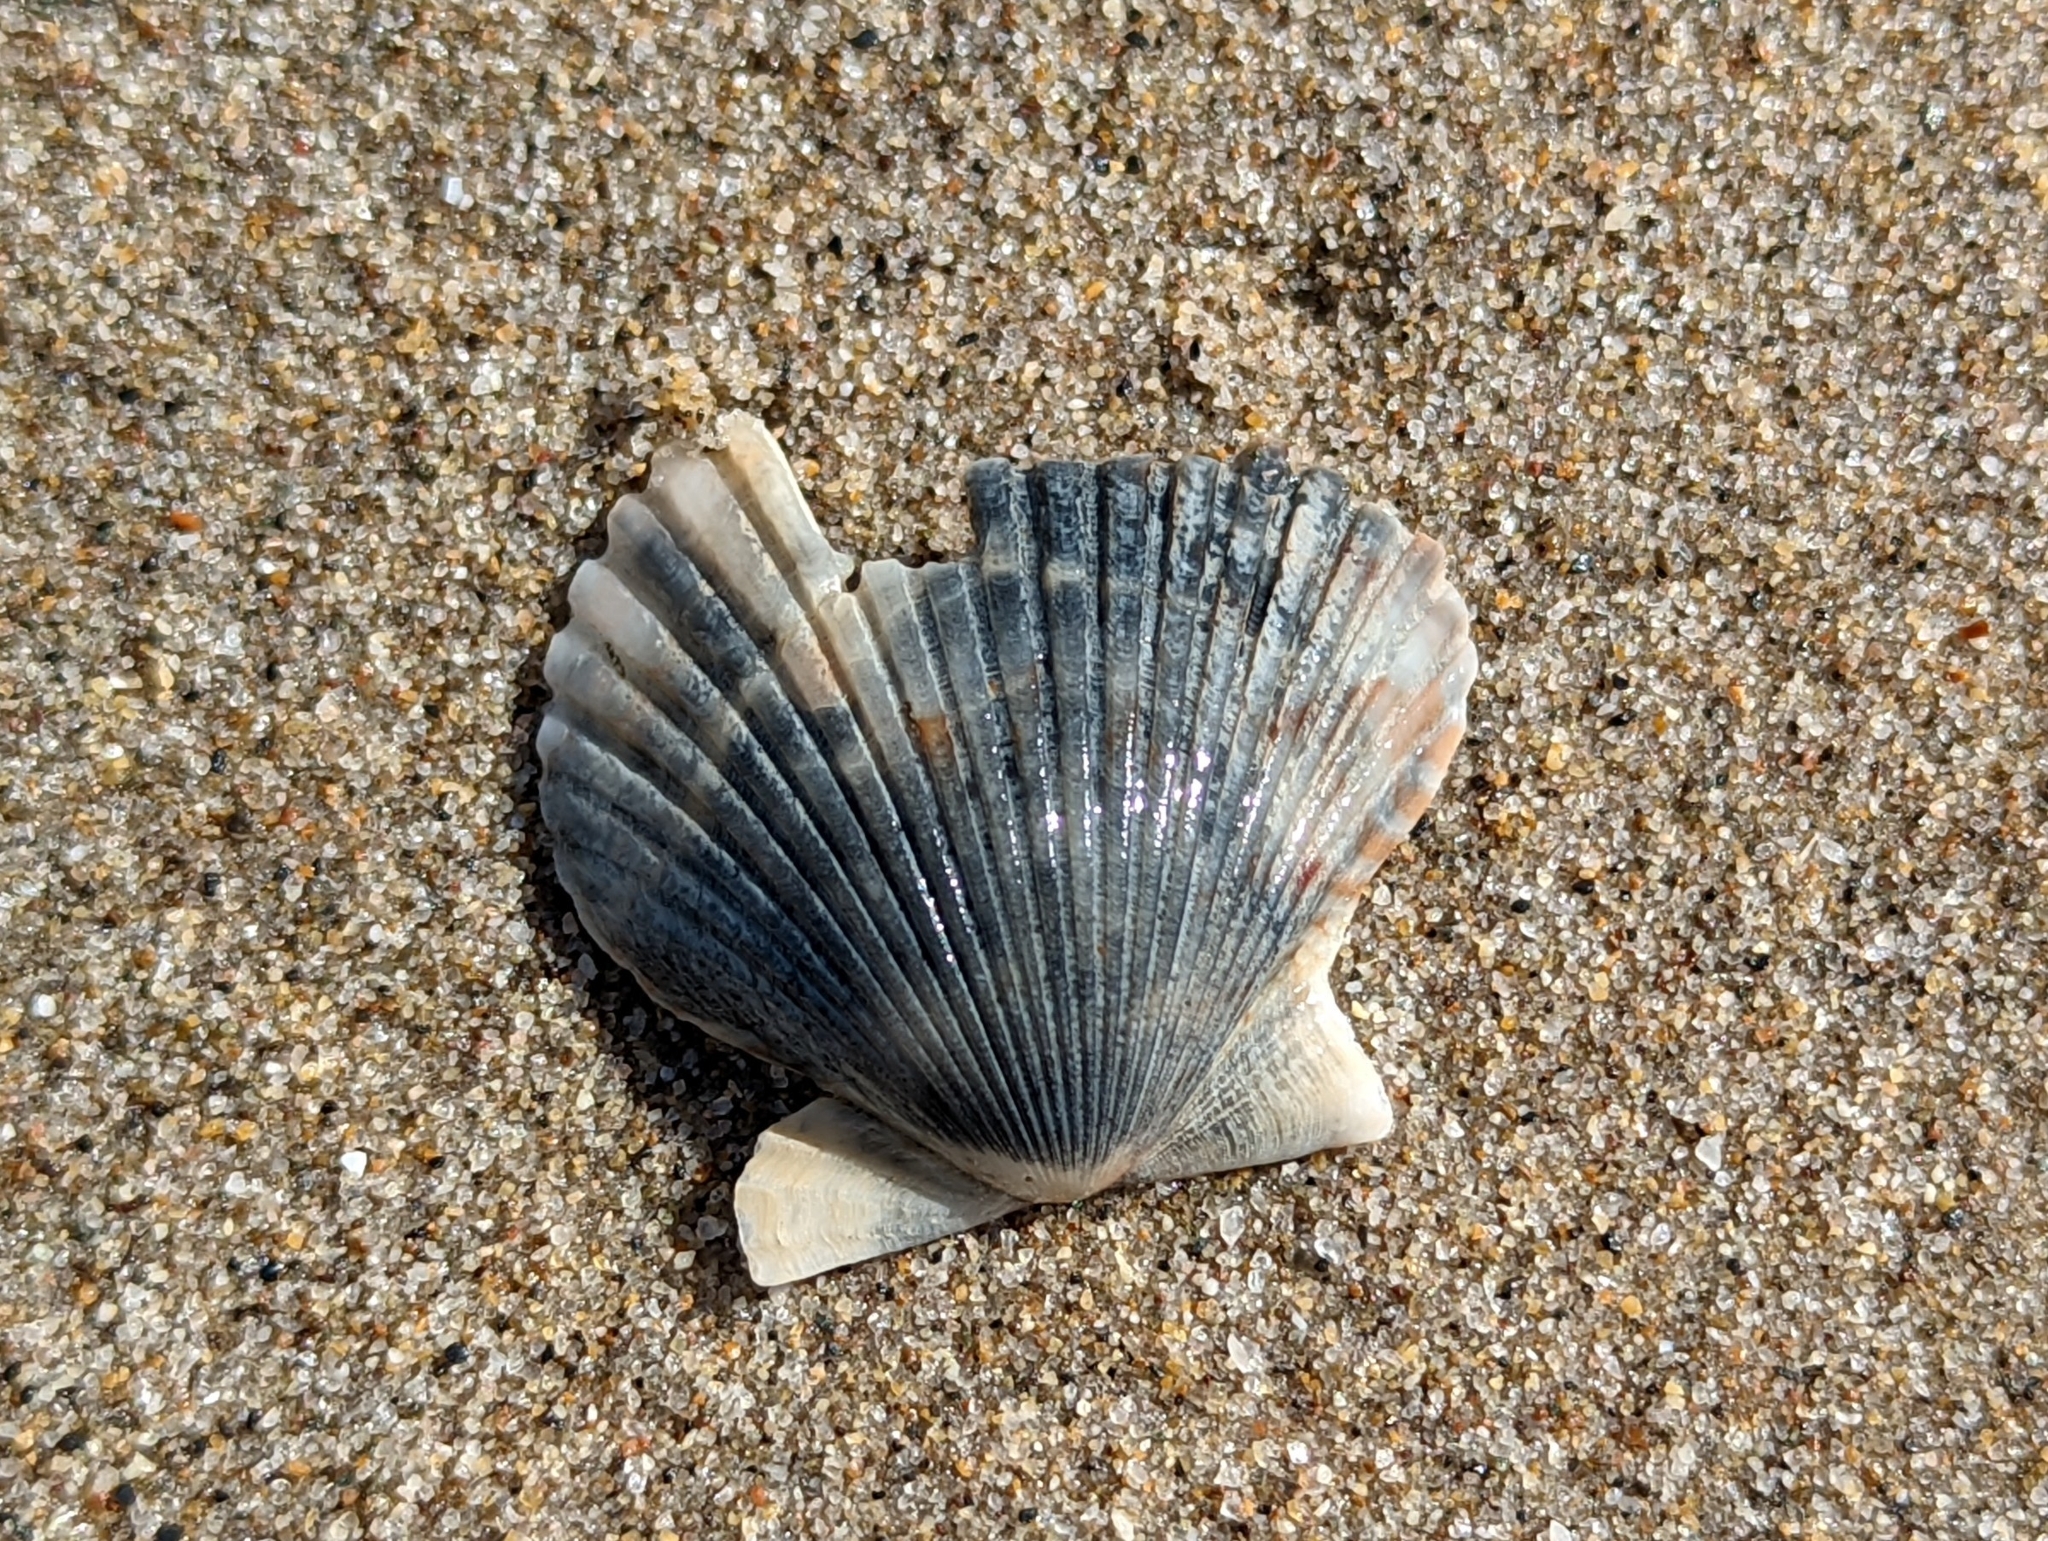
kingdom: Animalia
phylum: Mollusca
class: Bivalvia
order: Pectinida
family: Pectinidae
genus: Argopecten
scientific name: Argopecten ventricosus
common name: Catarina scallop
